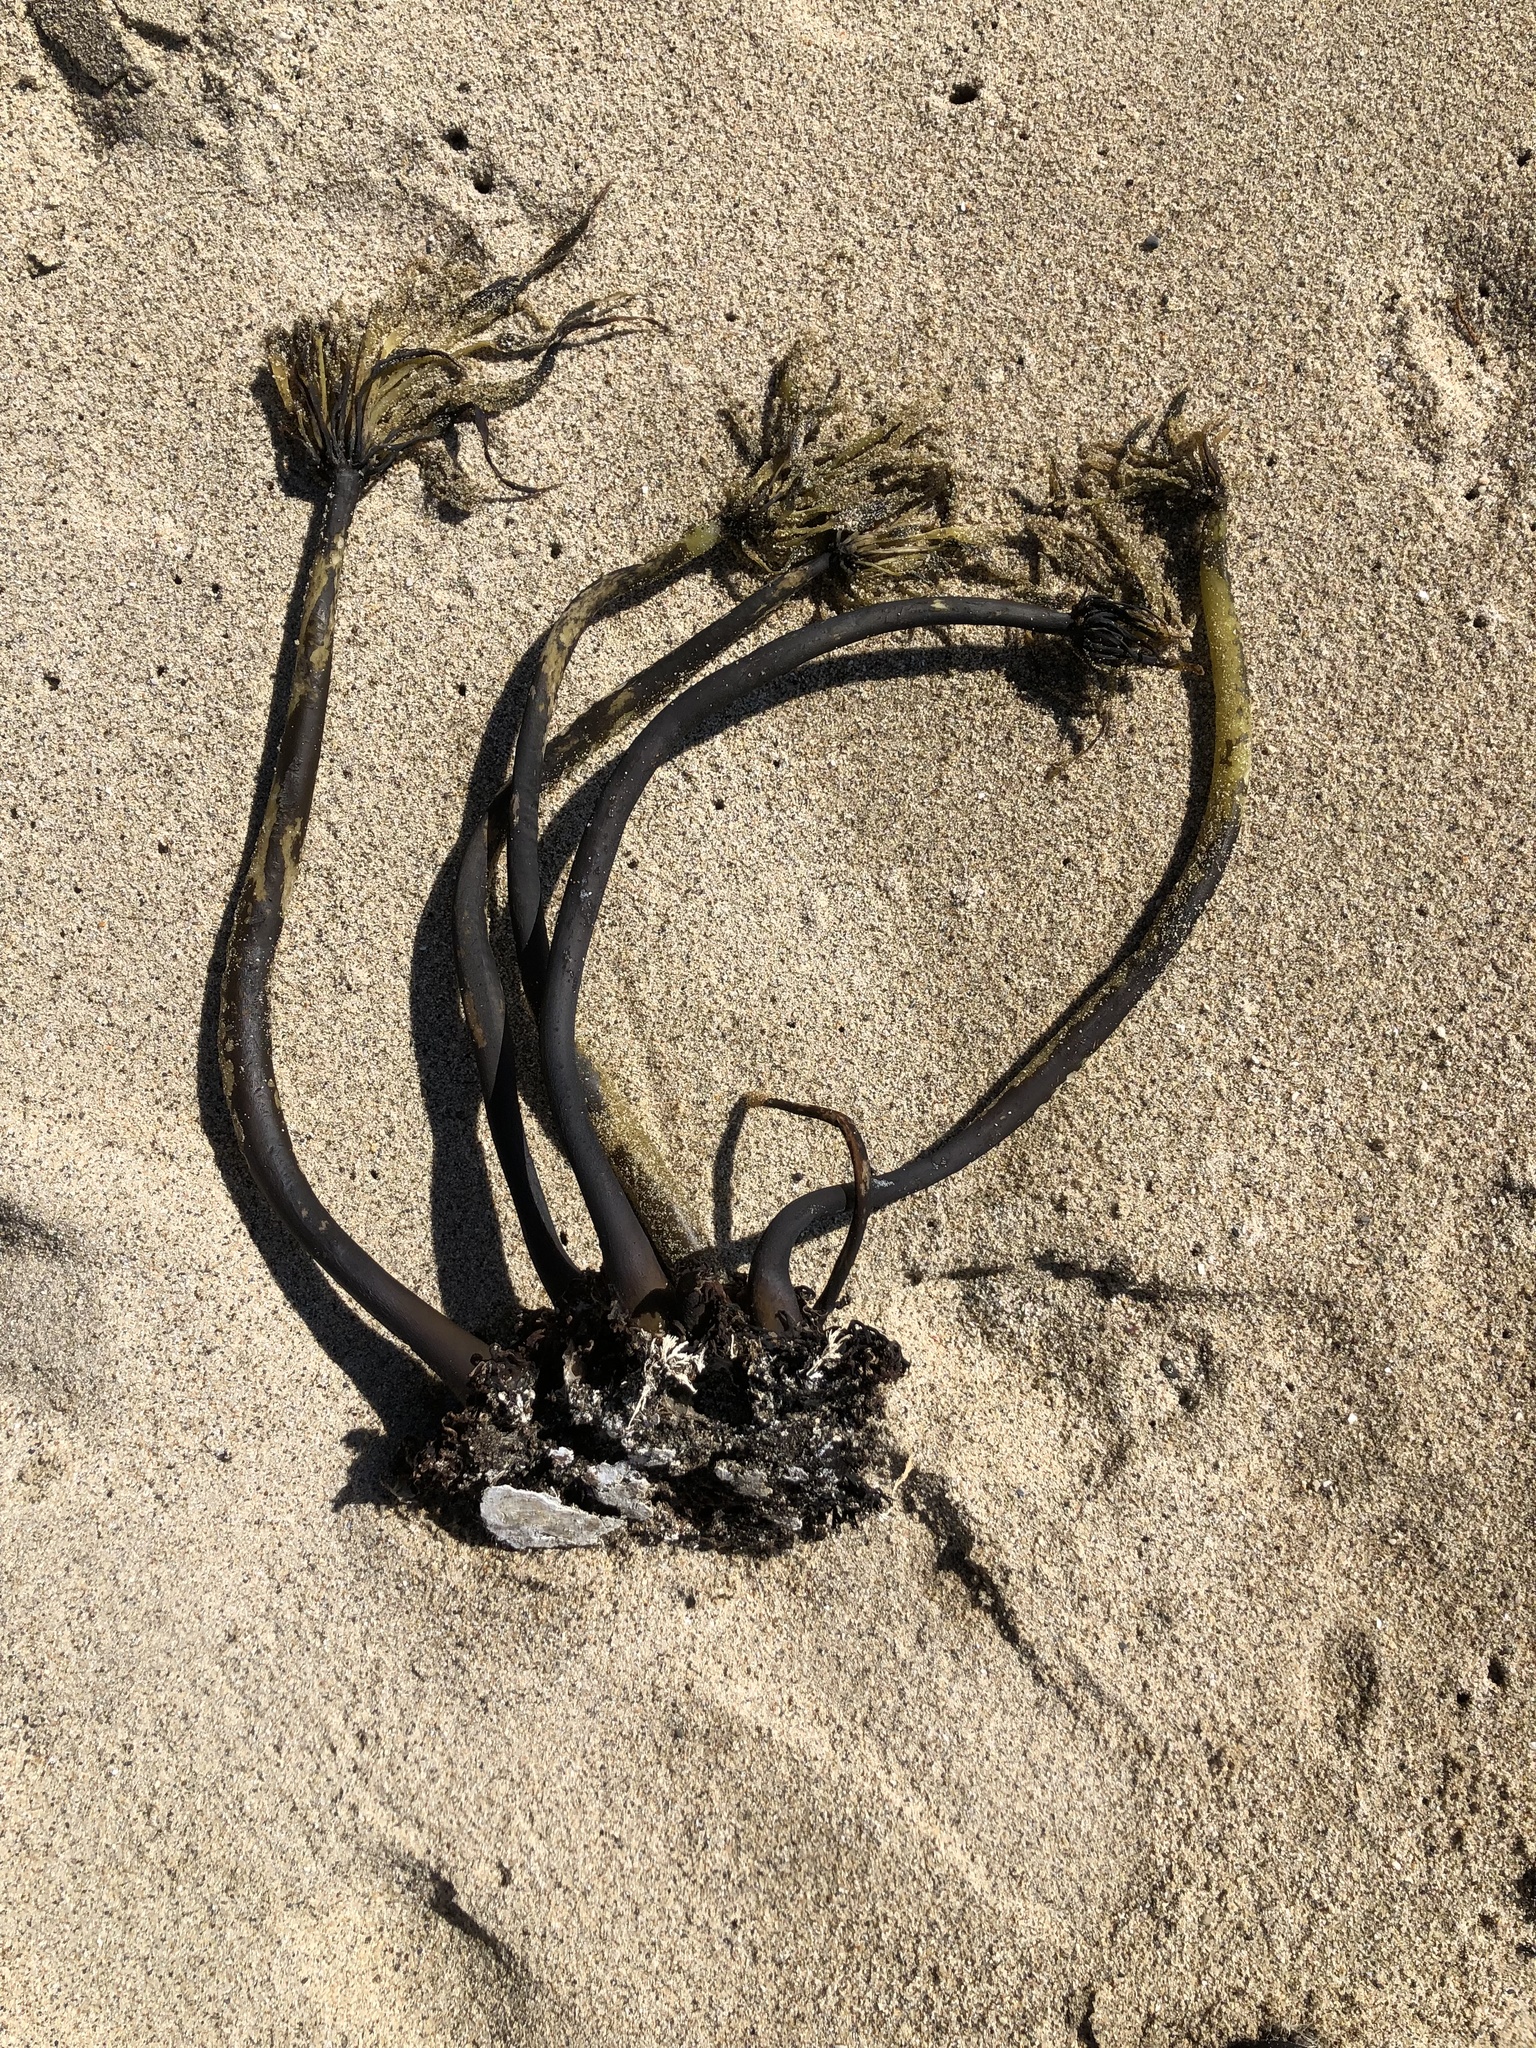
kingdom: Chromista
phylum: Ochrophyta
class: Phaeophyceae
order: Laminariales
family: Laminariaceae
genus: Postelsia
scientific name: Postelsia palmiformis
